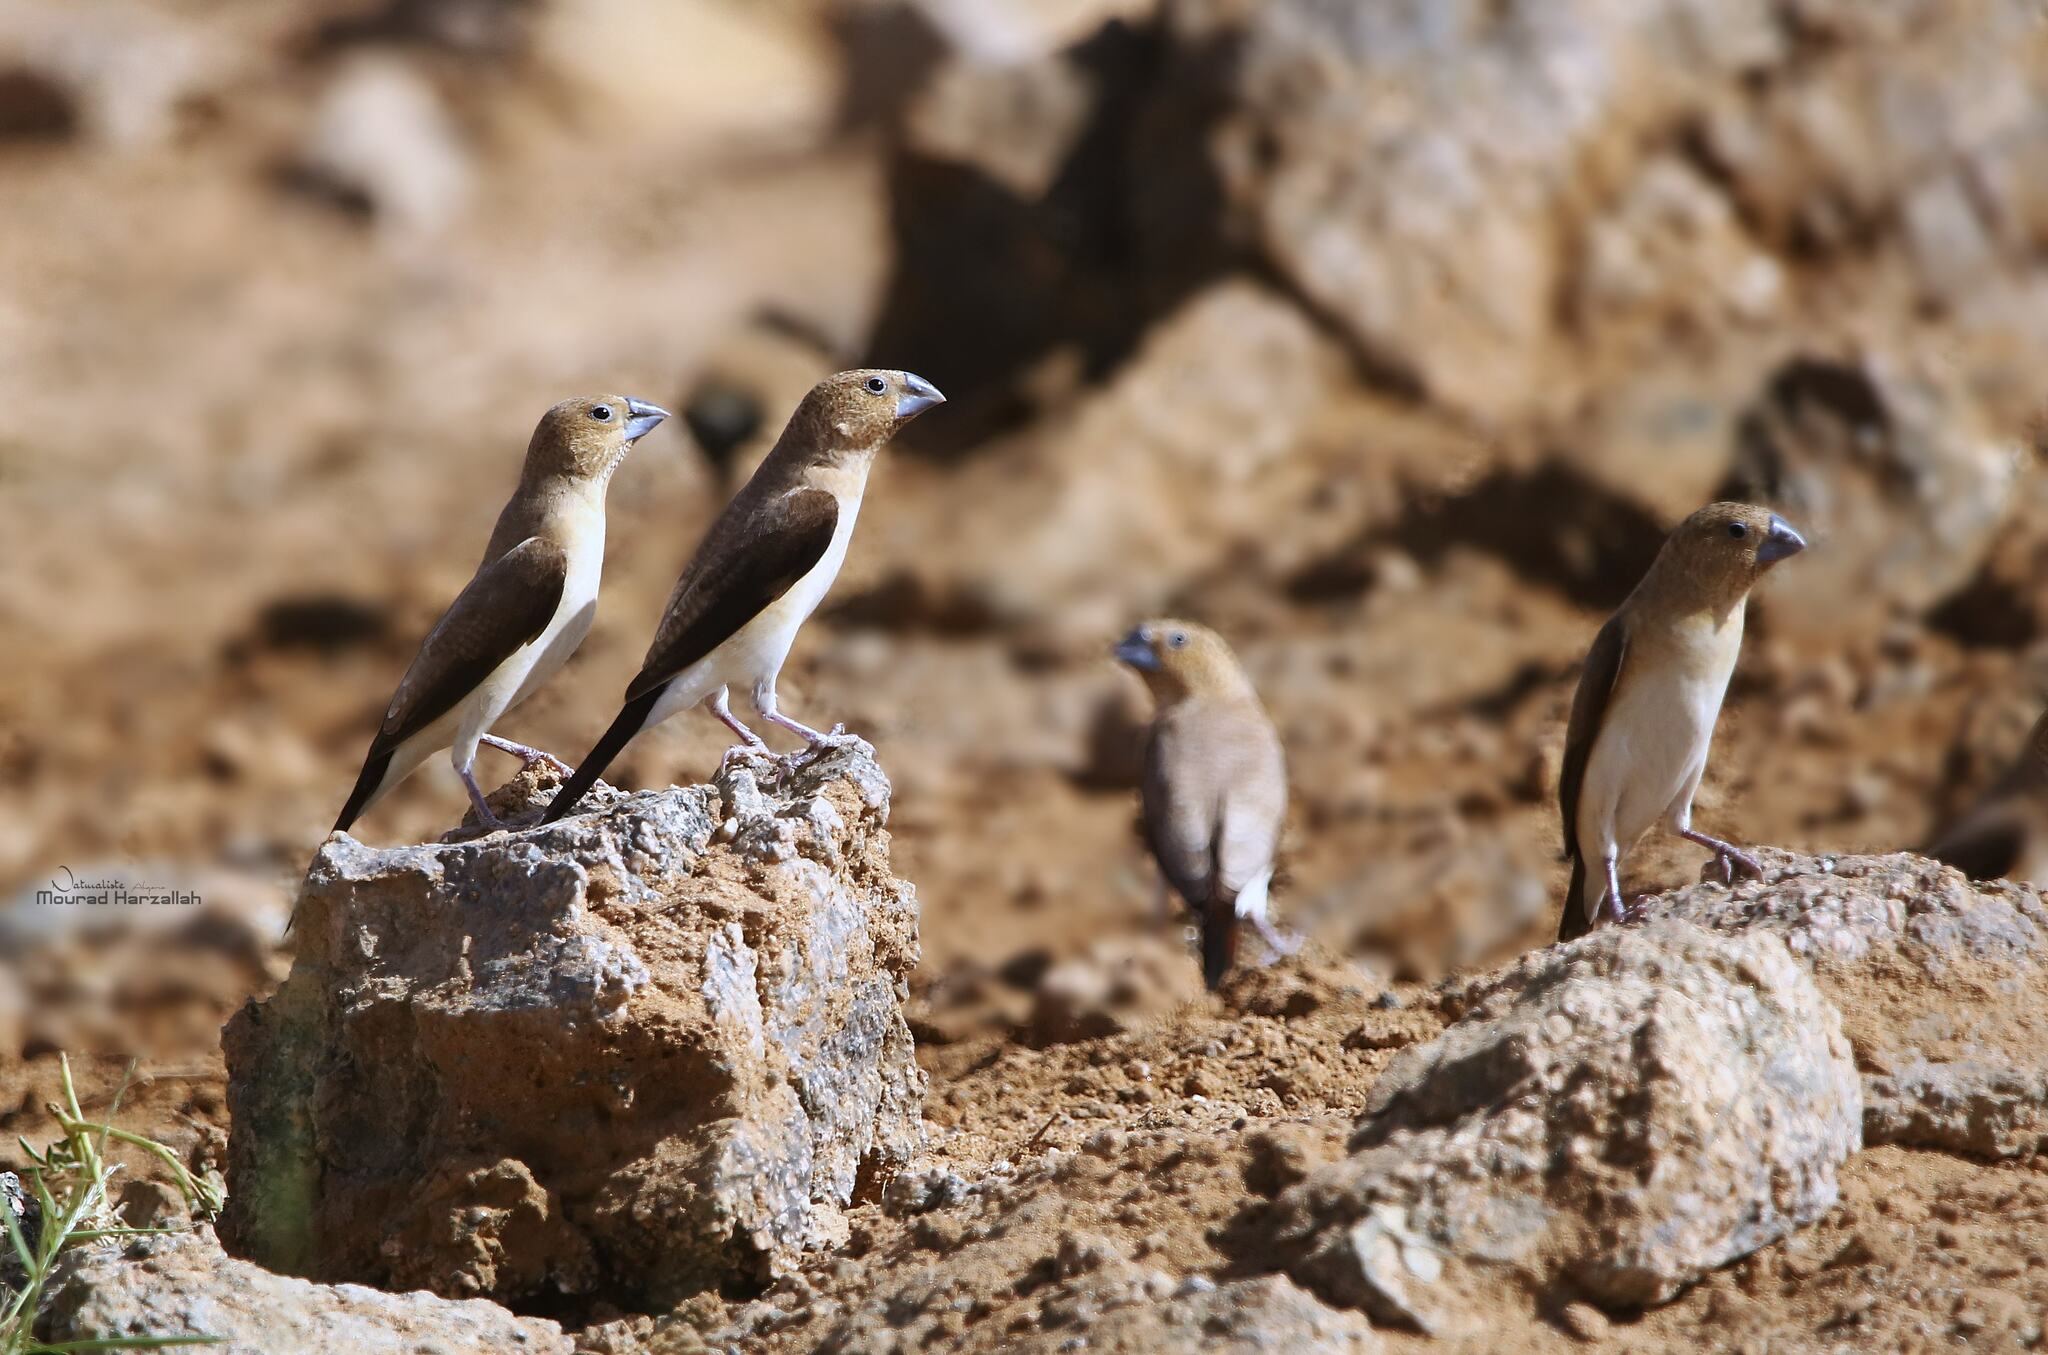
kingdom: Animalia
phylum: Chordata
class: Aves
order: Passeriformes
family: Estrildidae
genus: Euodice
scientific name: Euodice cantans
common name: African silverbill
